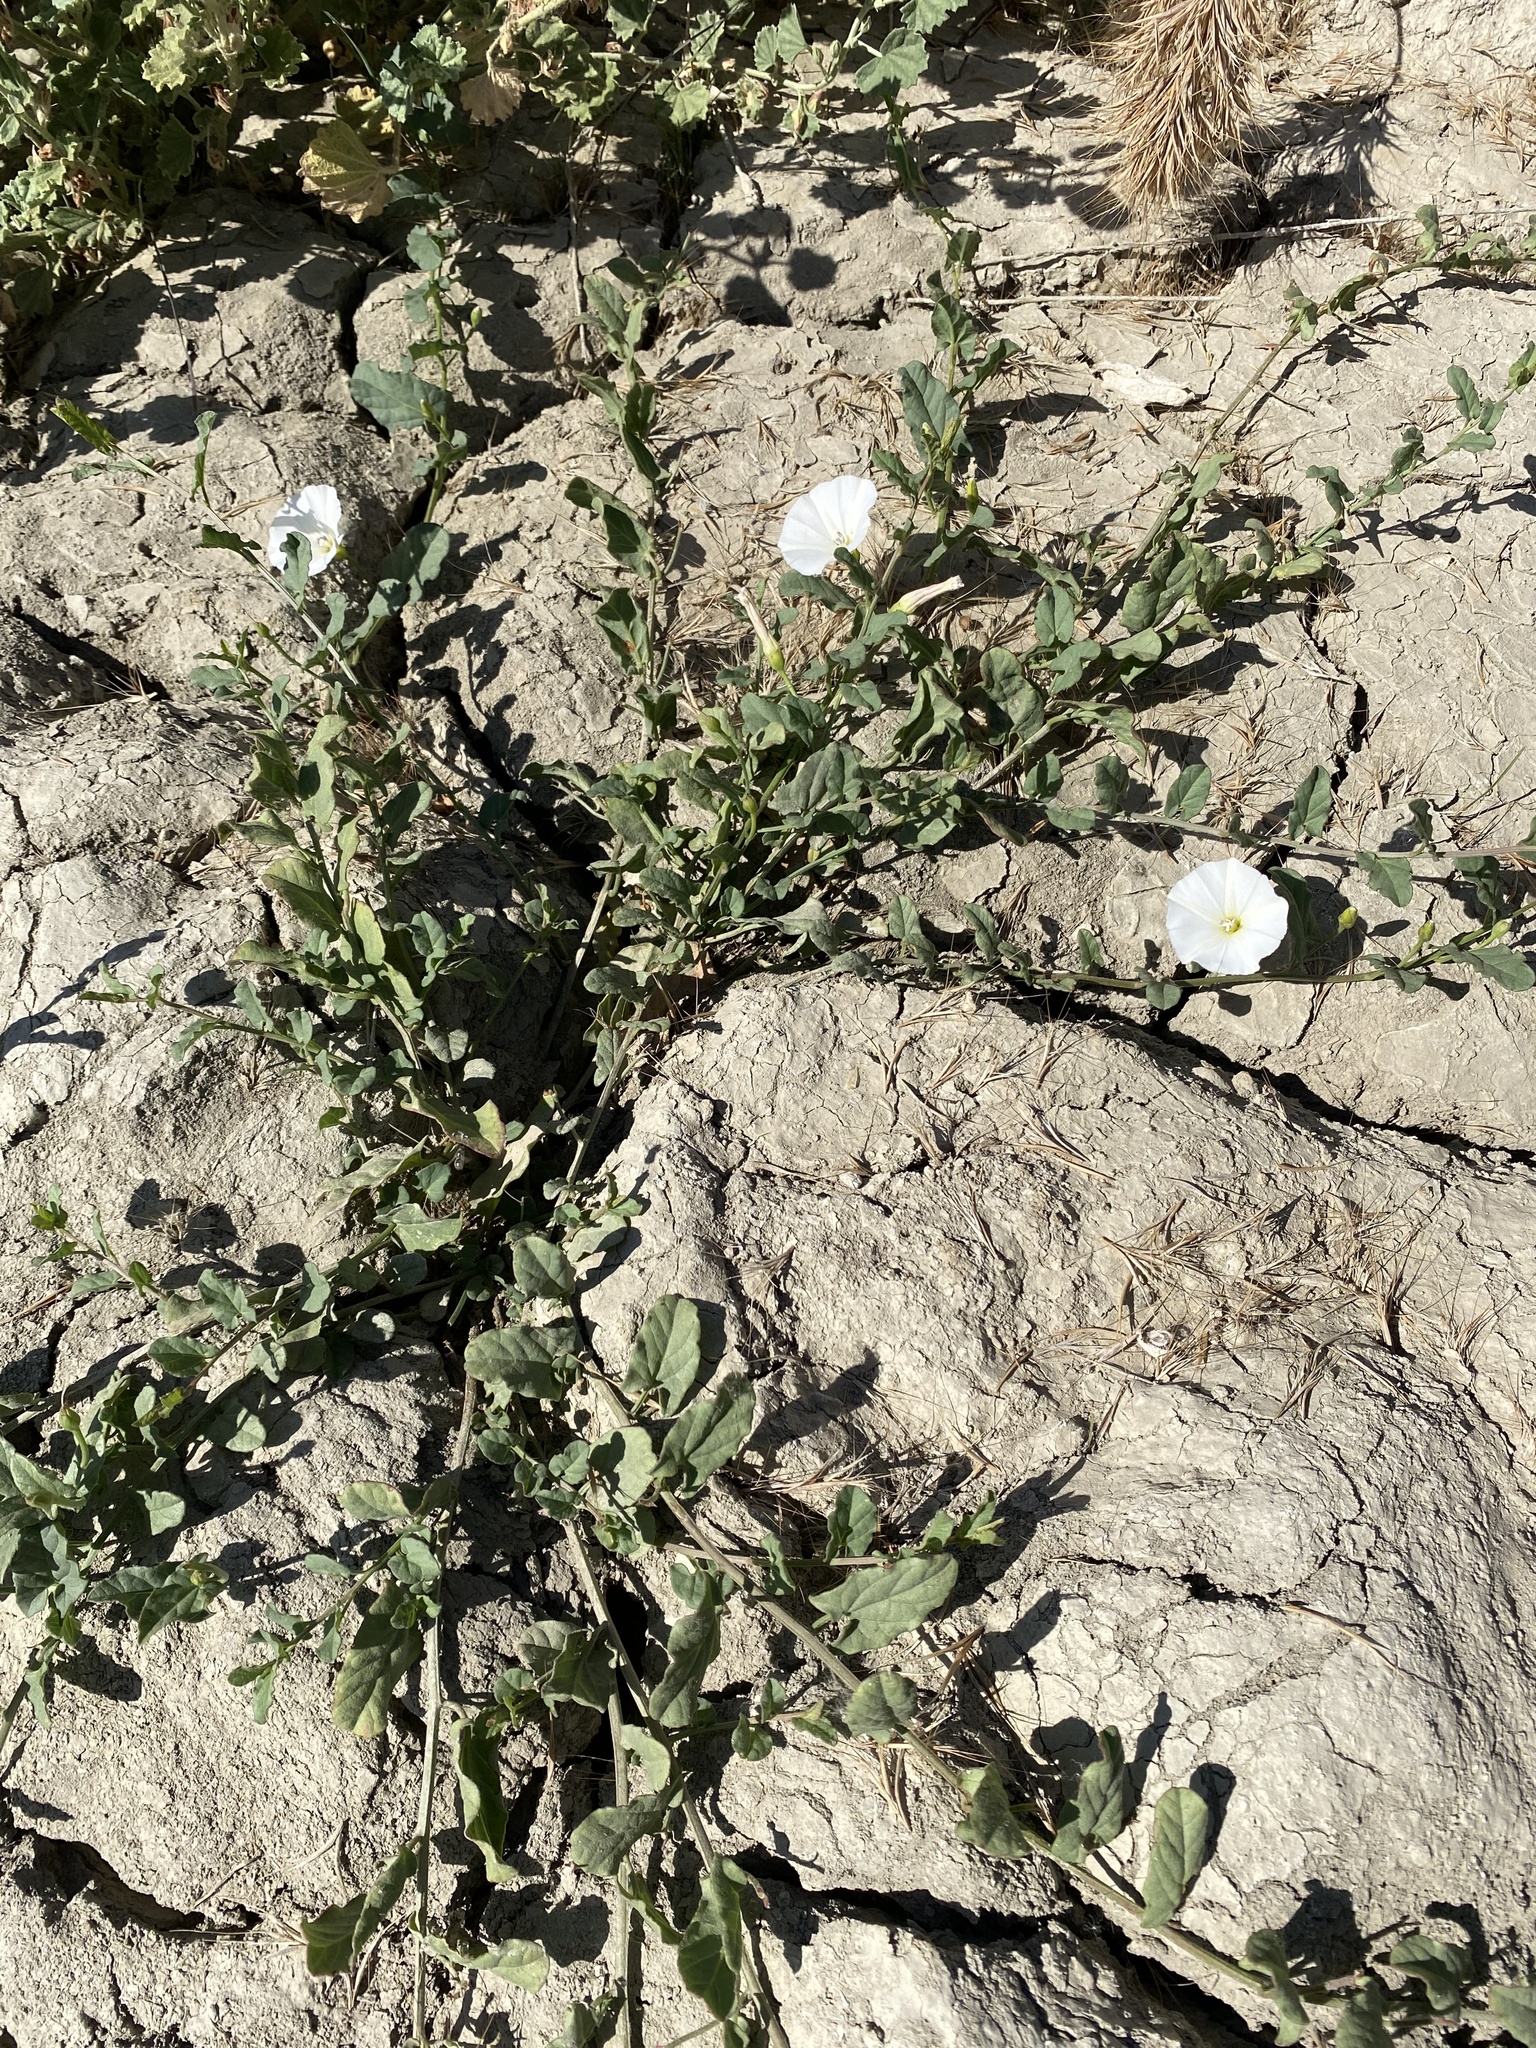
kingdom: Plantae
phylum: Tracheophyta
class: Magnoliopsida
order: Solanales
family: Convolvulaceae
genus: Convolvulus
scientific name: Convolvulus arvensis
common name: Field bindweed
